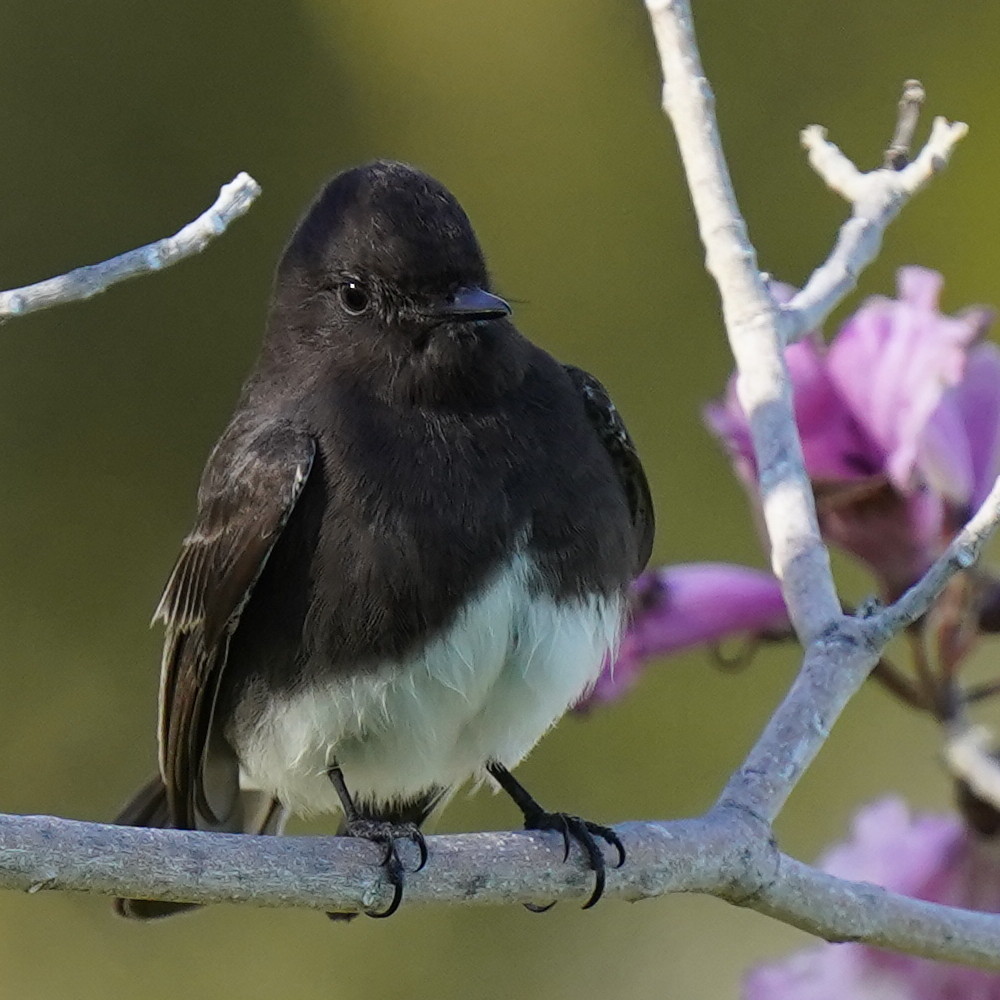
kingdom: Animalia
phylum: Chordata
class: Aves
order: Passeriformes
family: Tyrannidae
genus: Sayornis
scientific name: Sayornis nigricans
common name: Black phoebe
